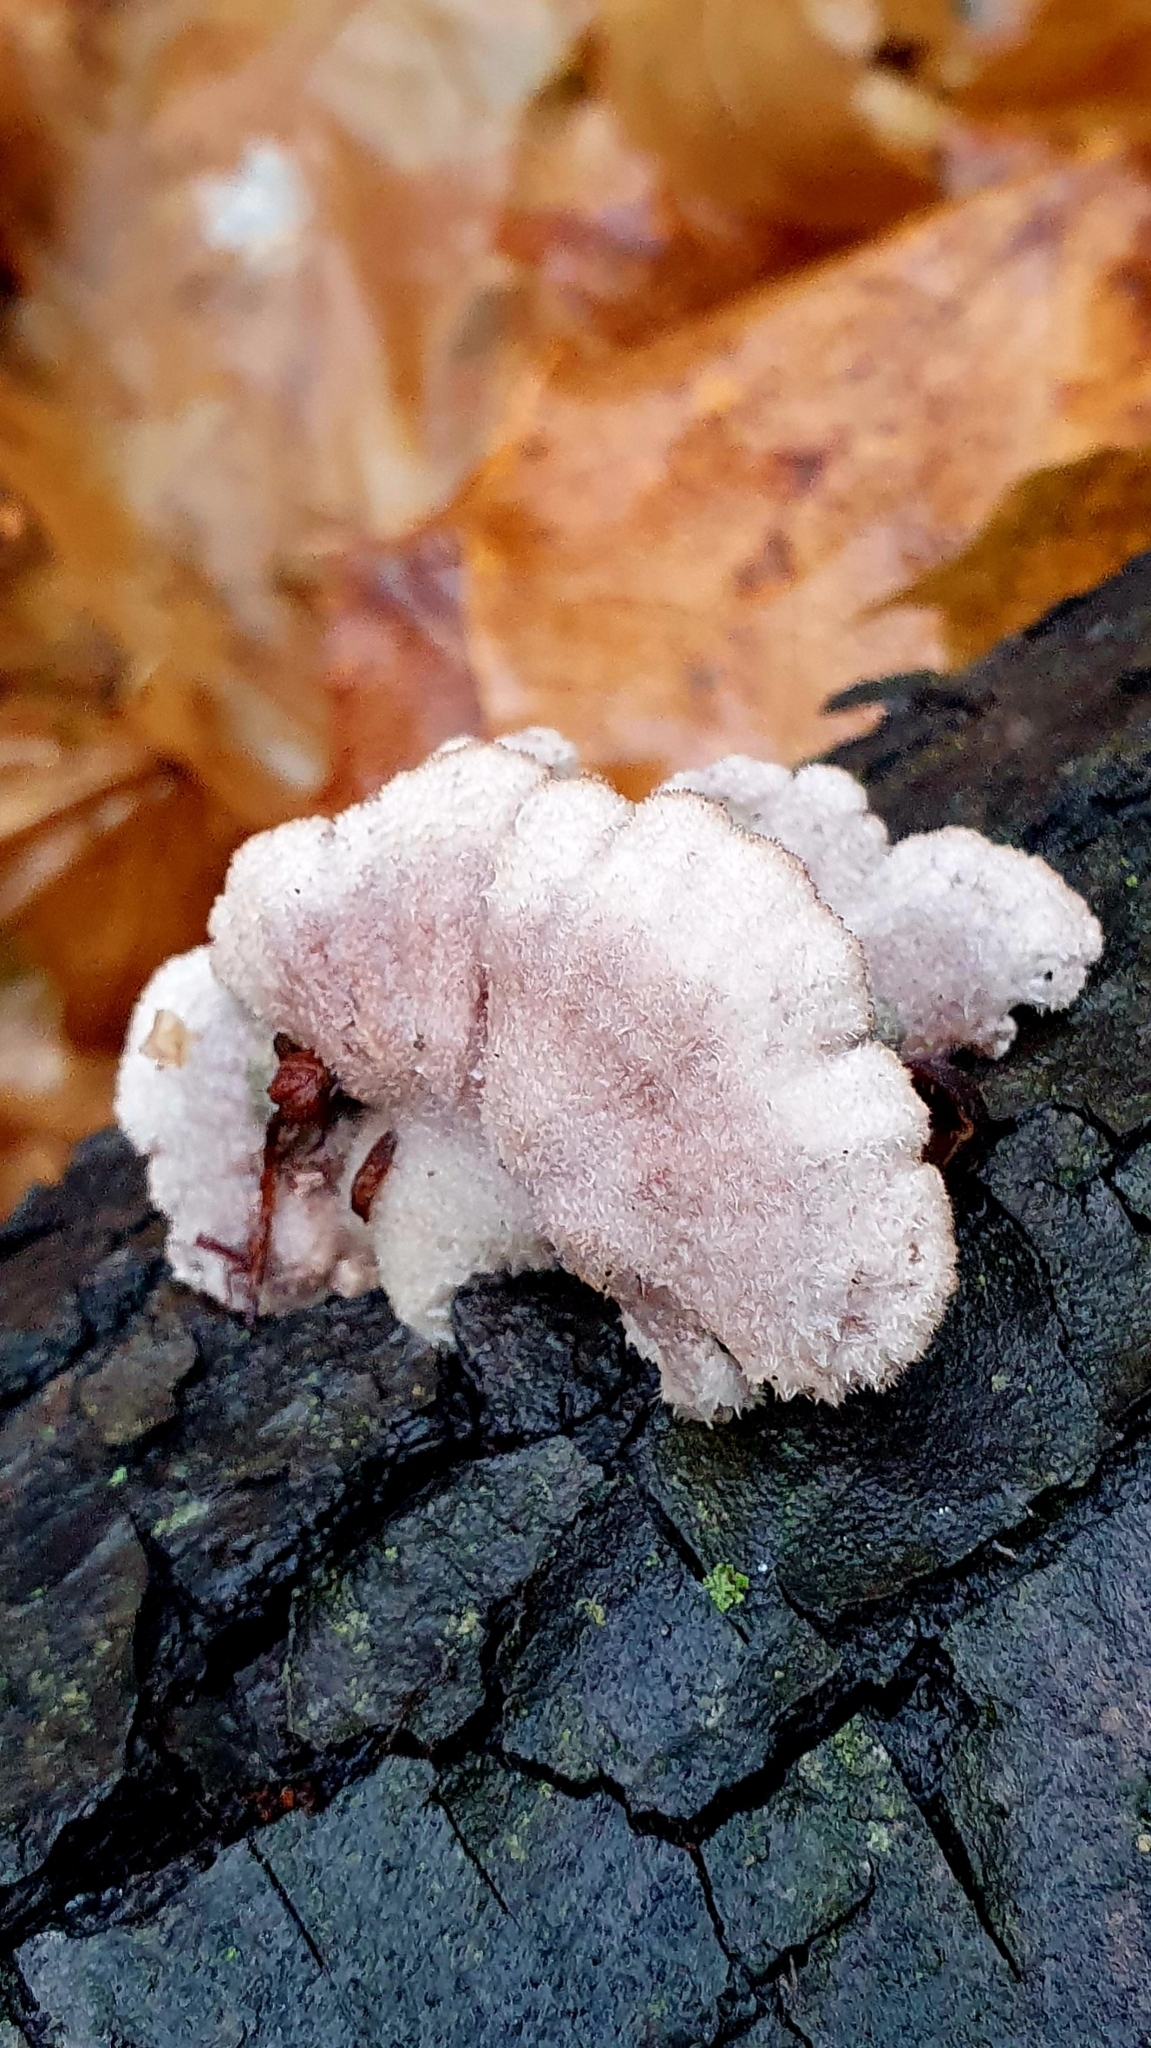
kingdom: Fungi
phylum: Basidiomycota
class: Agaricomycetes
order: Agaricales
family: Schizophyllaceae
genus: Schizophyllum
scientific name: Schizophyllum commune
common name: Common porecrust
